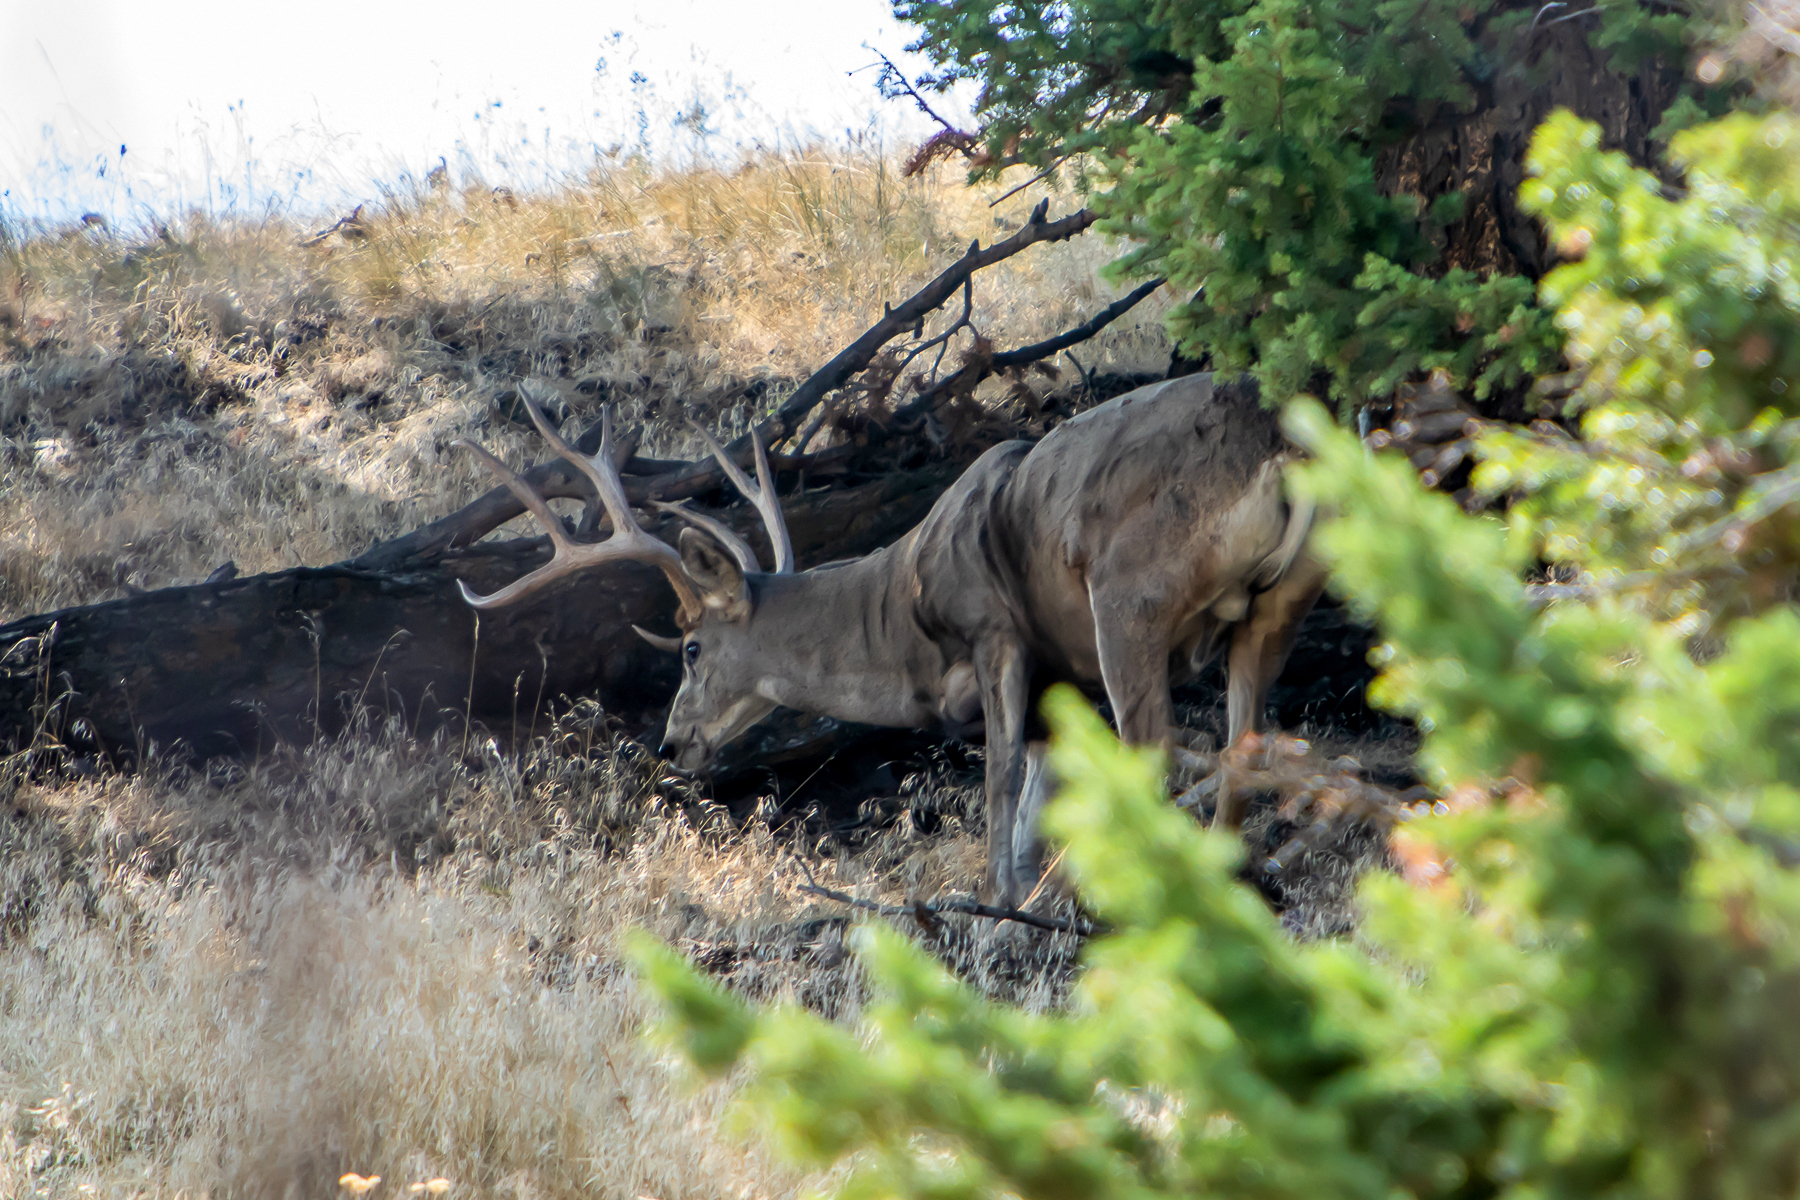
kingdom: Animalia
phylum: Chordata
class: Mammalia
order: Artiodactyla
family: Cervidae
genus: Odocoileus
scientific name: Odocoileus hemionus
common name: Mule deer
